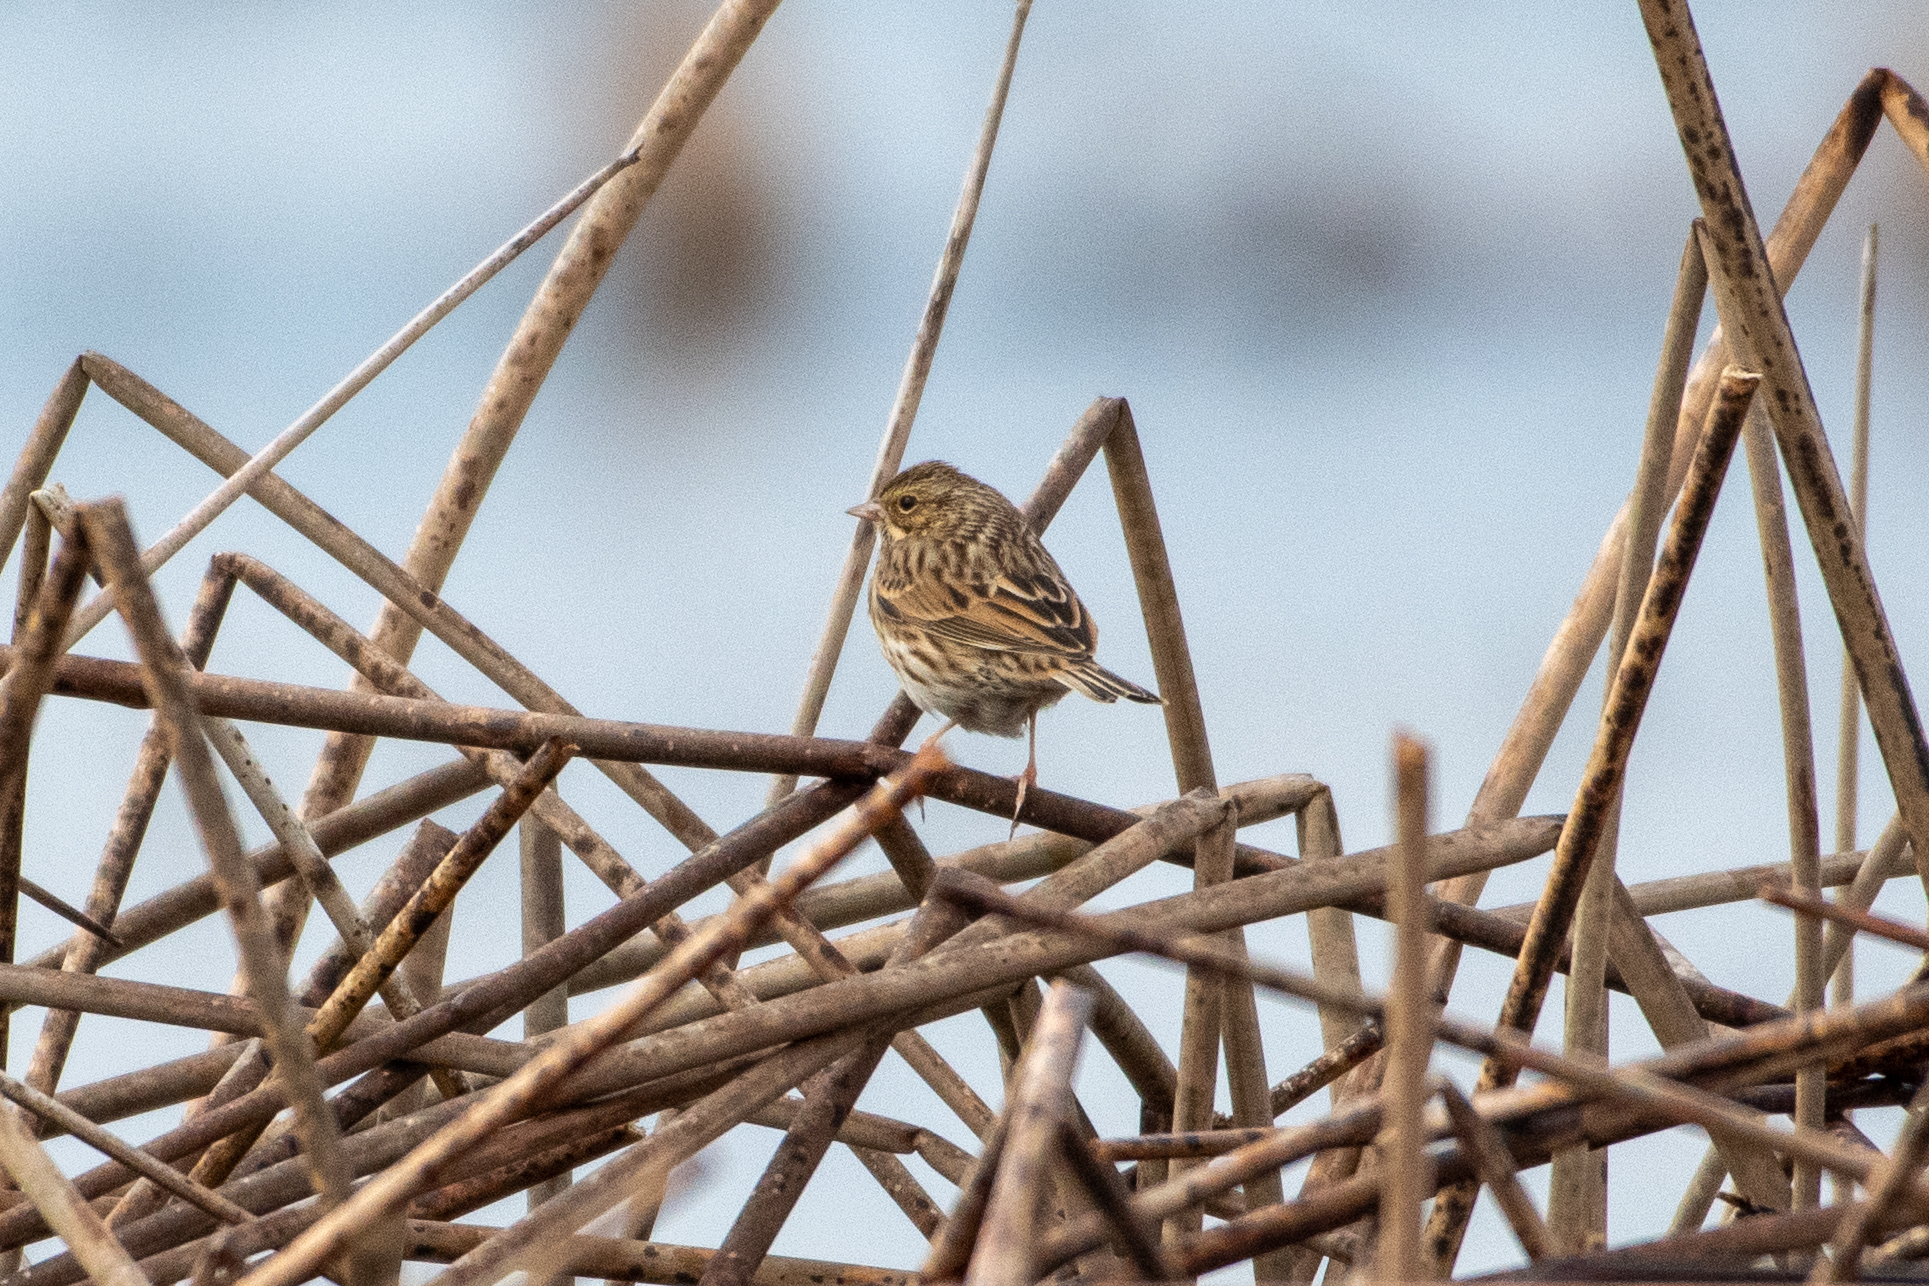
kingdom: Animalia
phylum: Chordata
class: Aves
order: Passeriformes
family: Passerellidae
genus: Passerculus
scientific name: Passerculus sandwichensis
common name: Savannah sparrow
